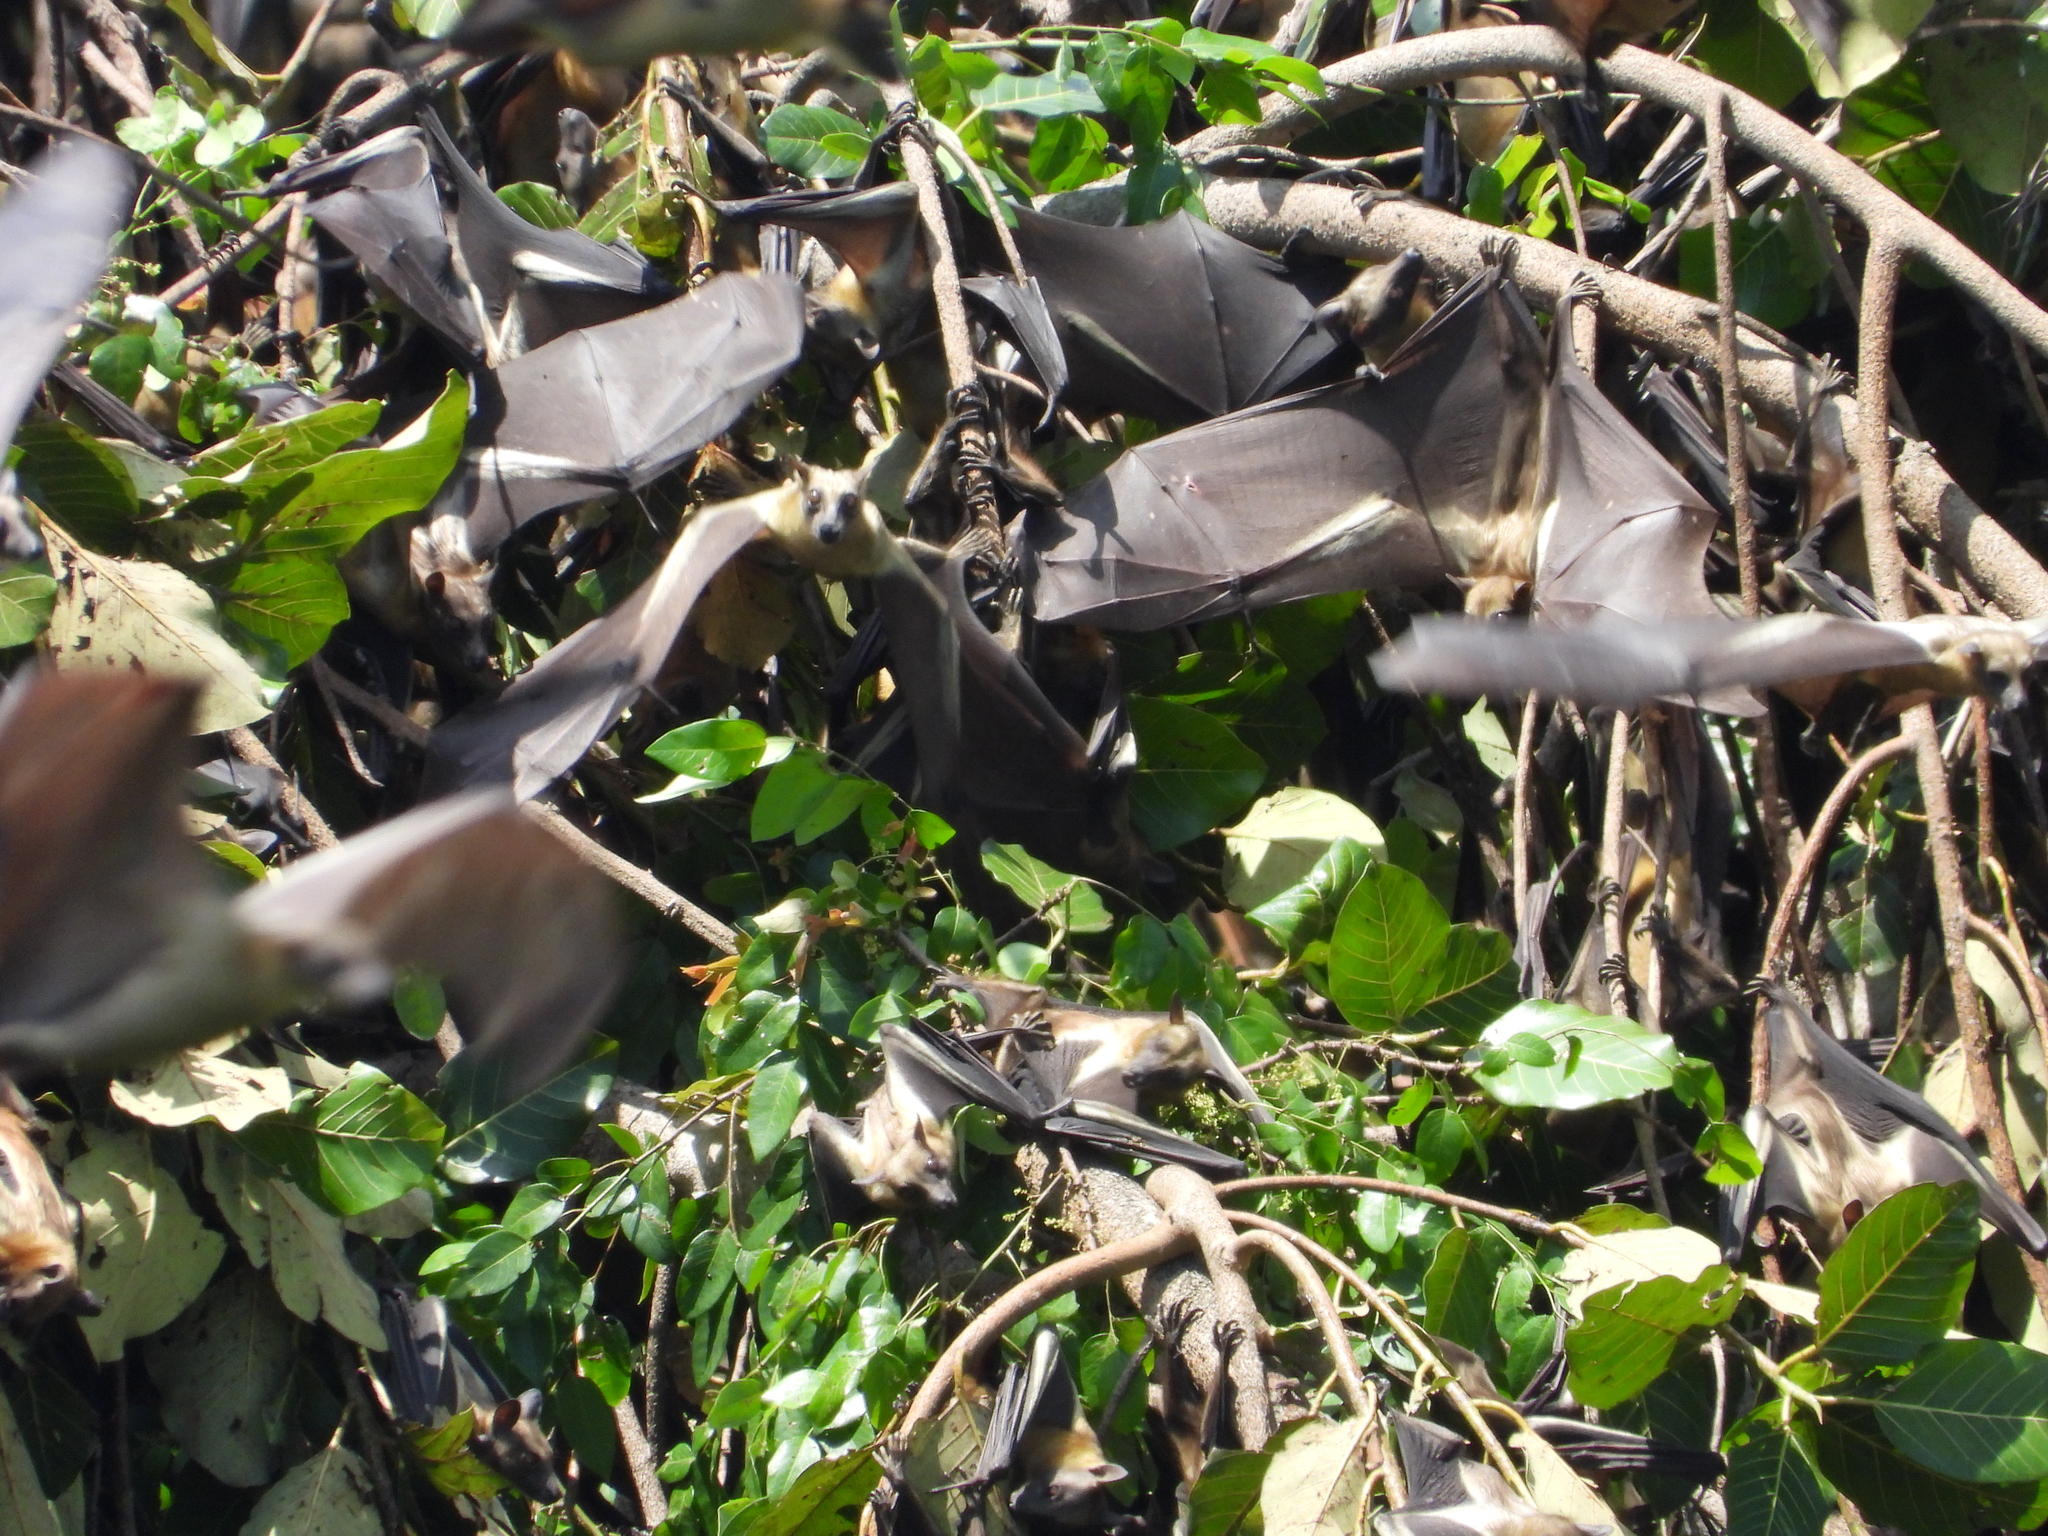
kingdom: Animalia
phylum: Chordata
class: Mammalia
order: Chiroptera
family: Pteropodidae
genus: Eidolon
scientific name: Eidolon helvum
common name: Straw-colored fruit bat
